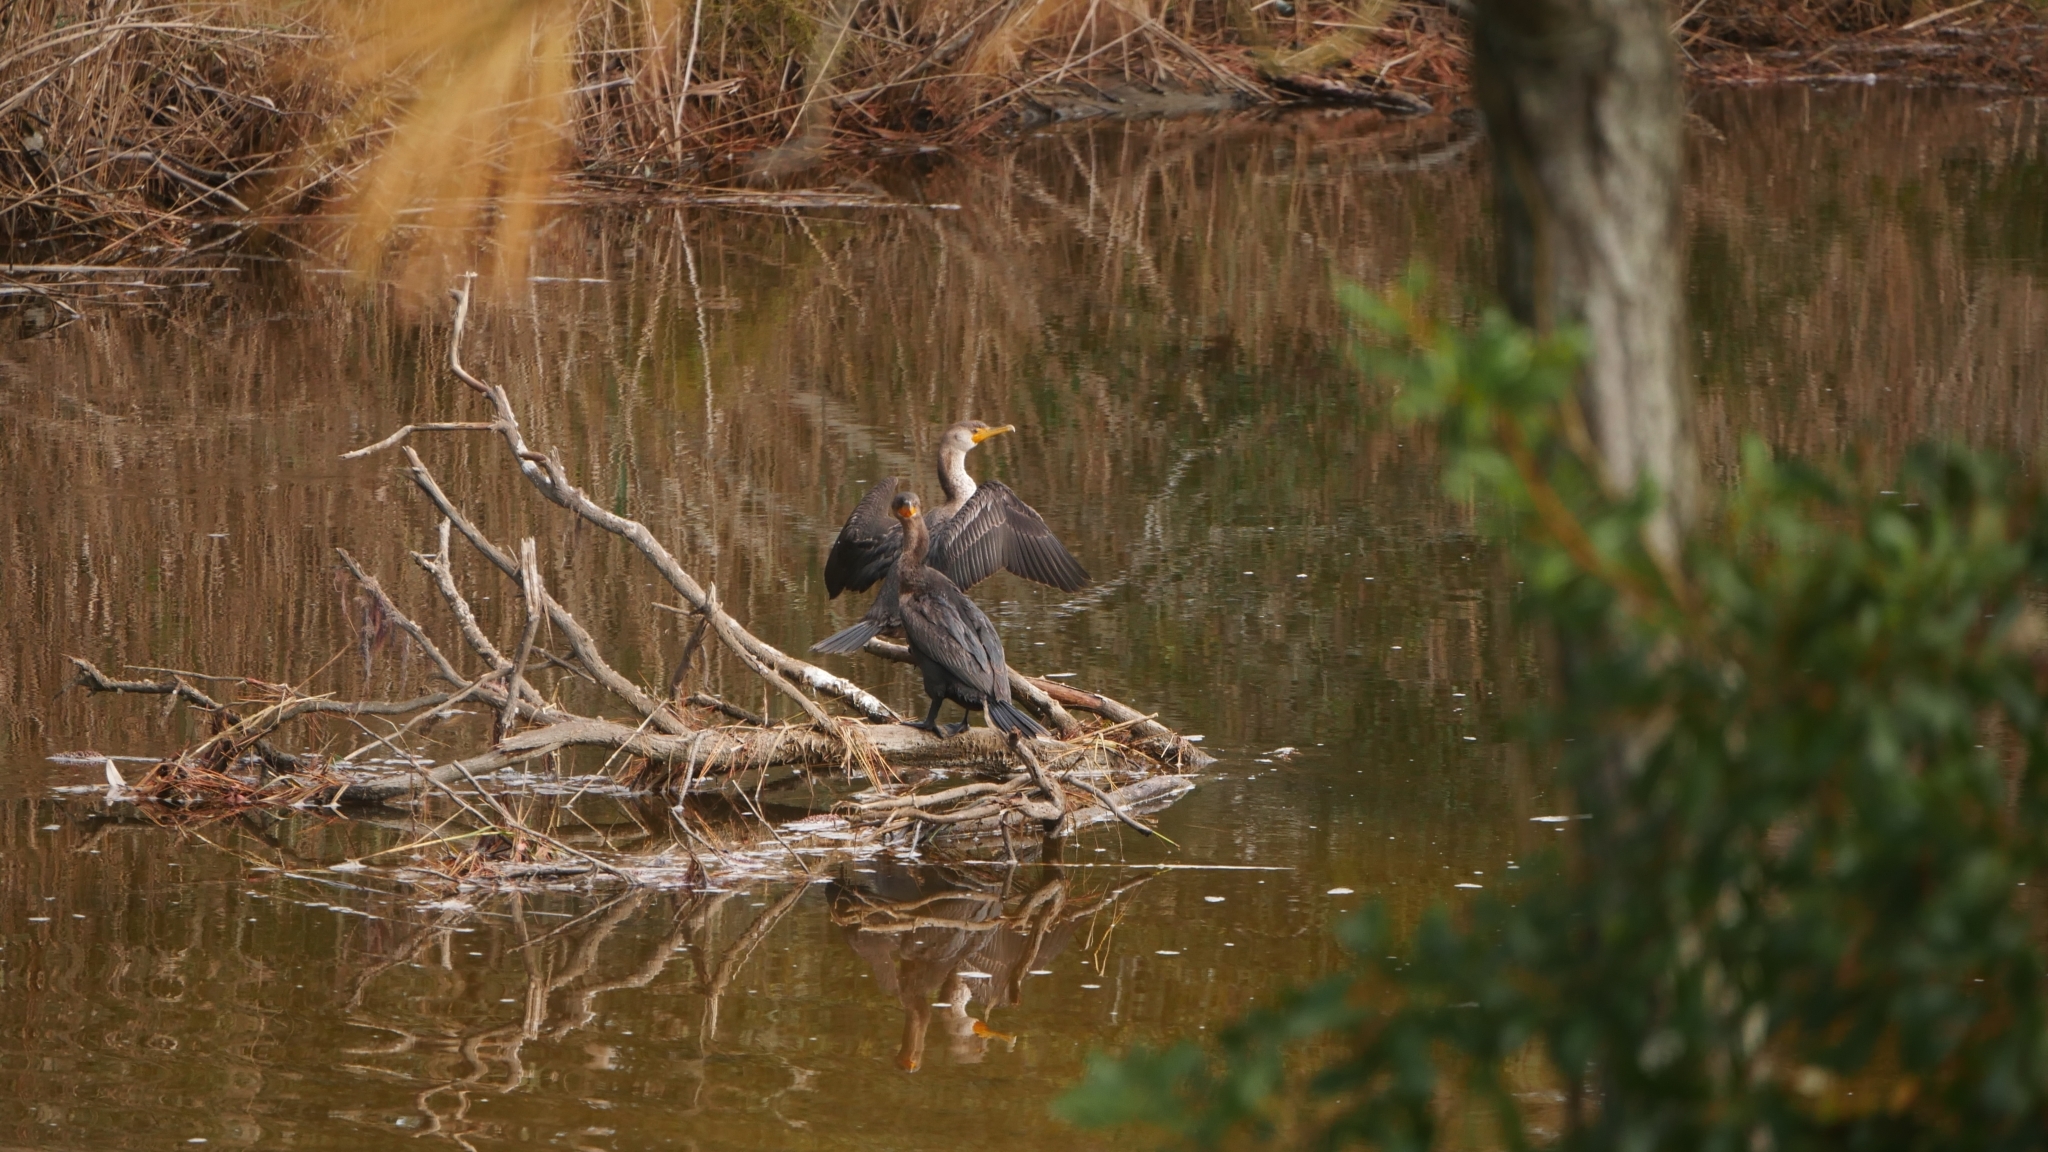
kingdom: Animalia
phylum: Chordata
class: Aves
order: Suliformes
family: Phalacrocoracidae
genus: Phalacrocorax
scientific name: Phalacrocorax auritus
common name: Double-crested cormorant
